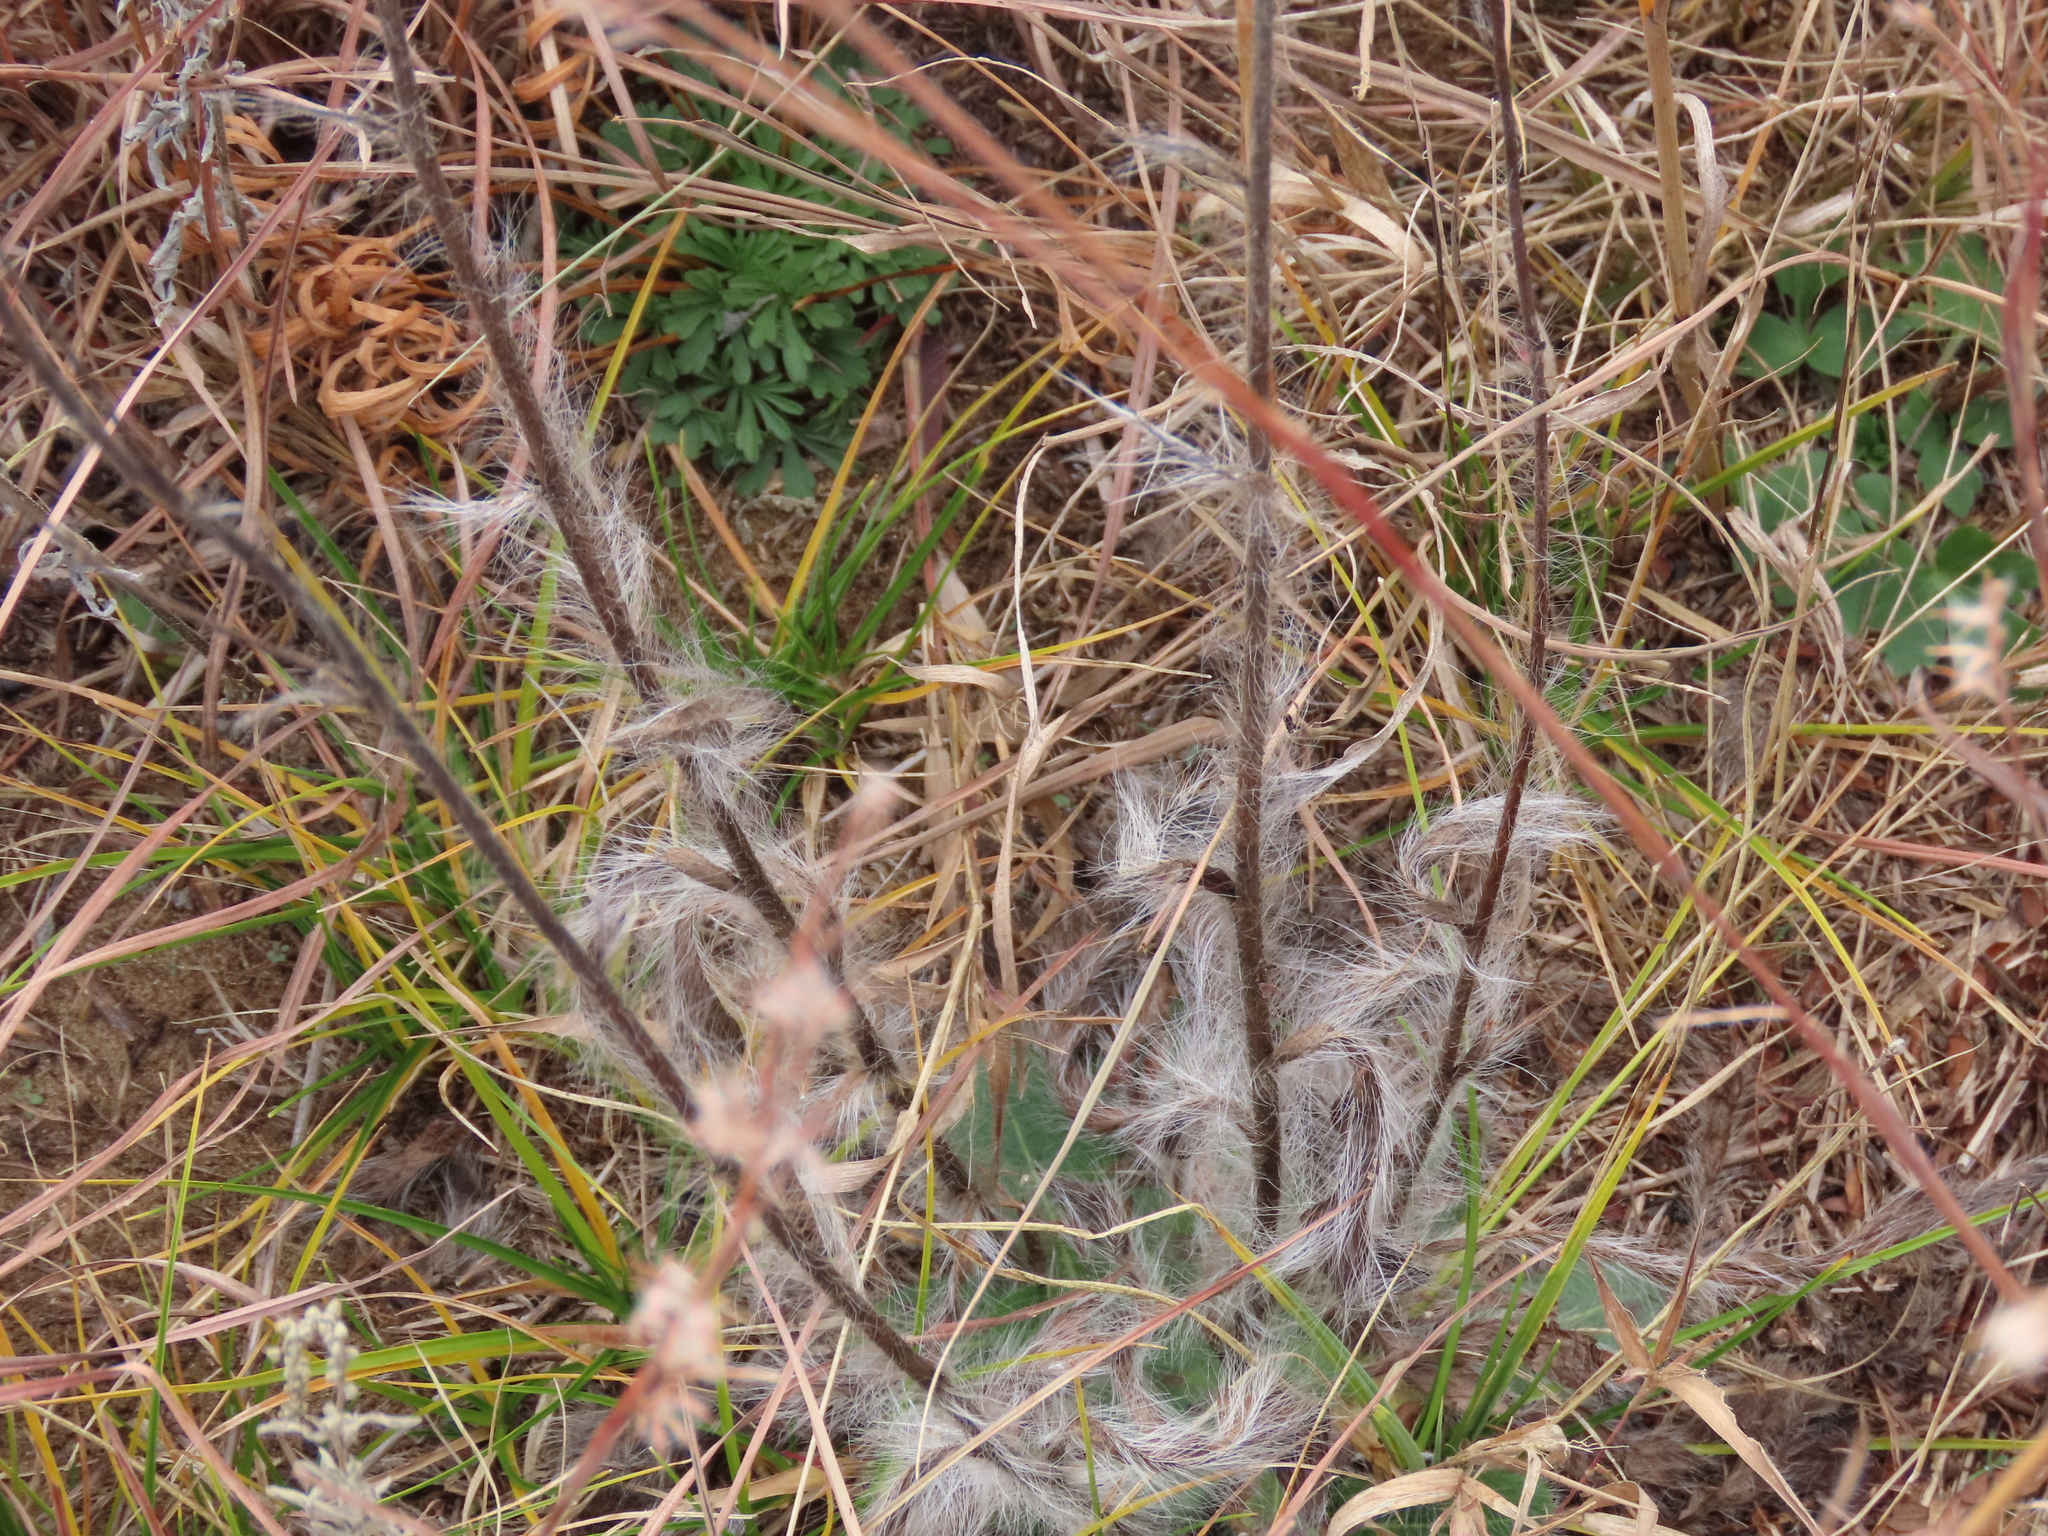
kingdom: Plantae
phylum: Tracheophyta
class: Magnoliopsida
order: Asterales
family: Asteraceae
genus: Hieracium
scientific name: Hieracium longipilum
